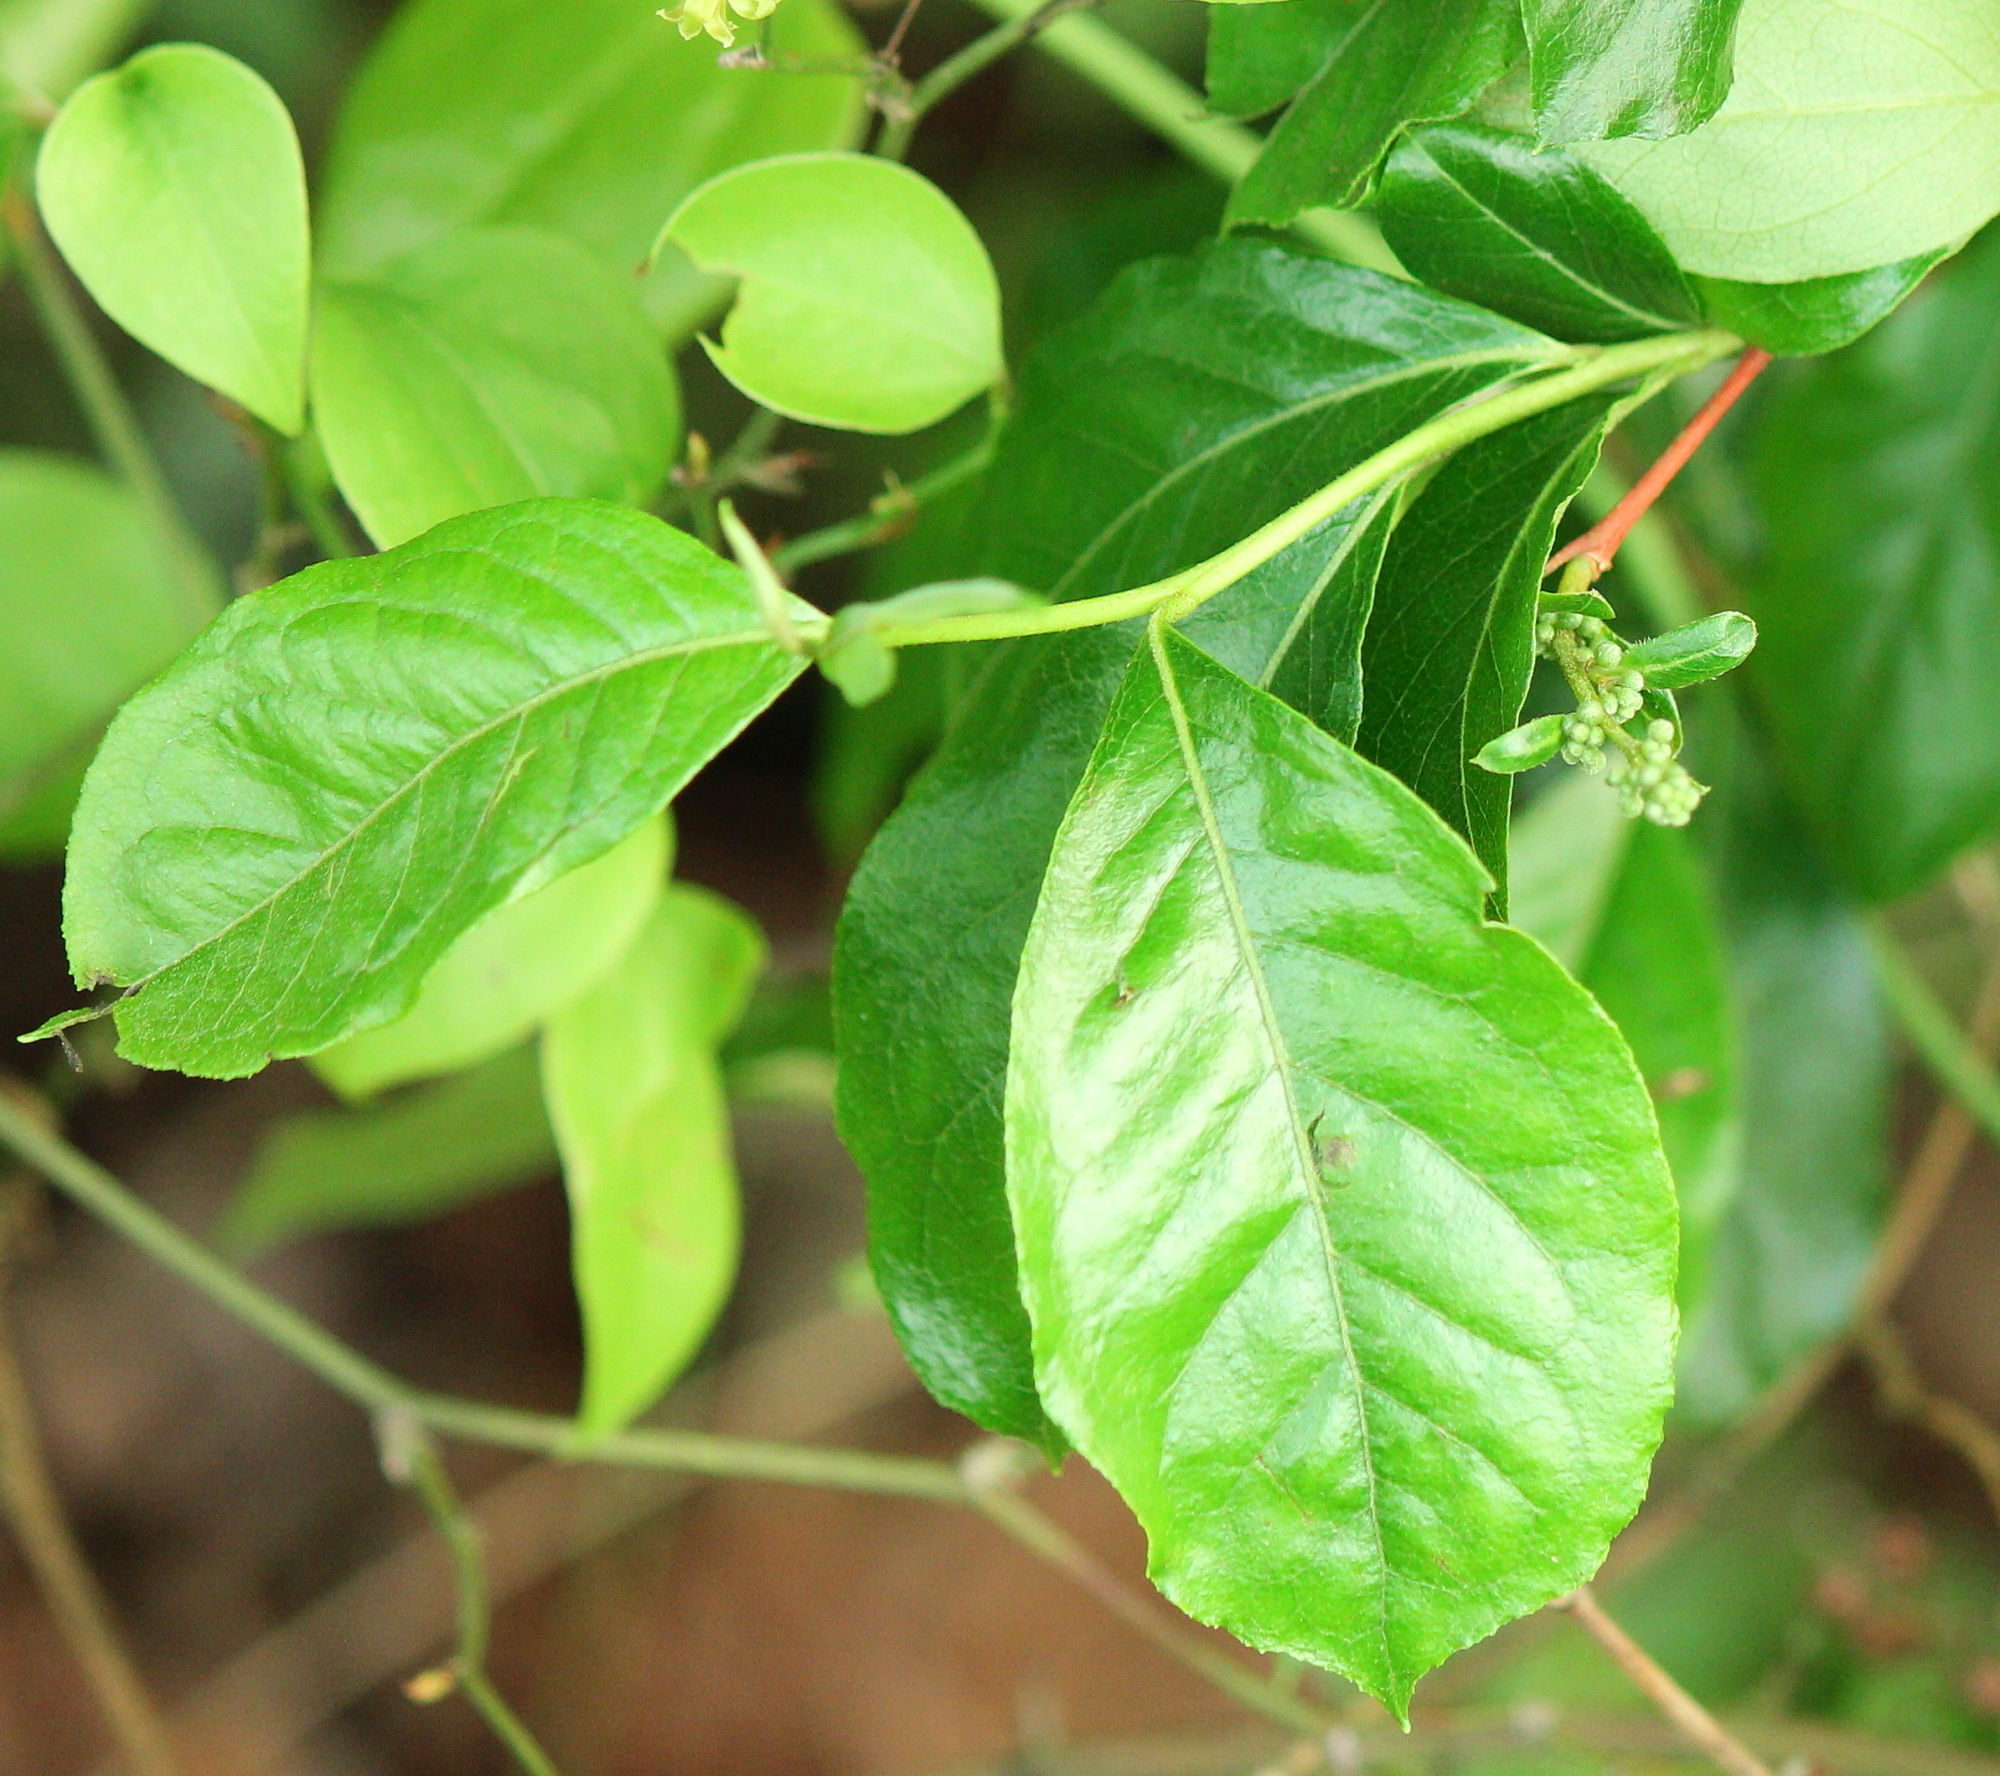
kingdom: Plantae
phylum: Tracheophyta
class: Magnoliopsida
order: Ericales
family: Ericaceae
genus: Lyonia
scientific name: Lyonia ligustrina
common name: Maleberry
